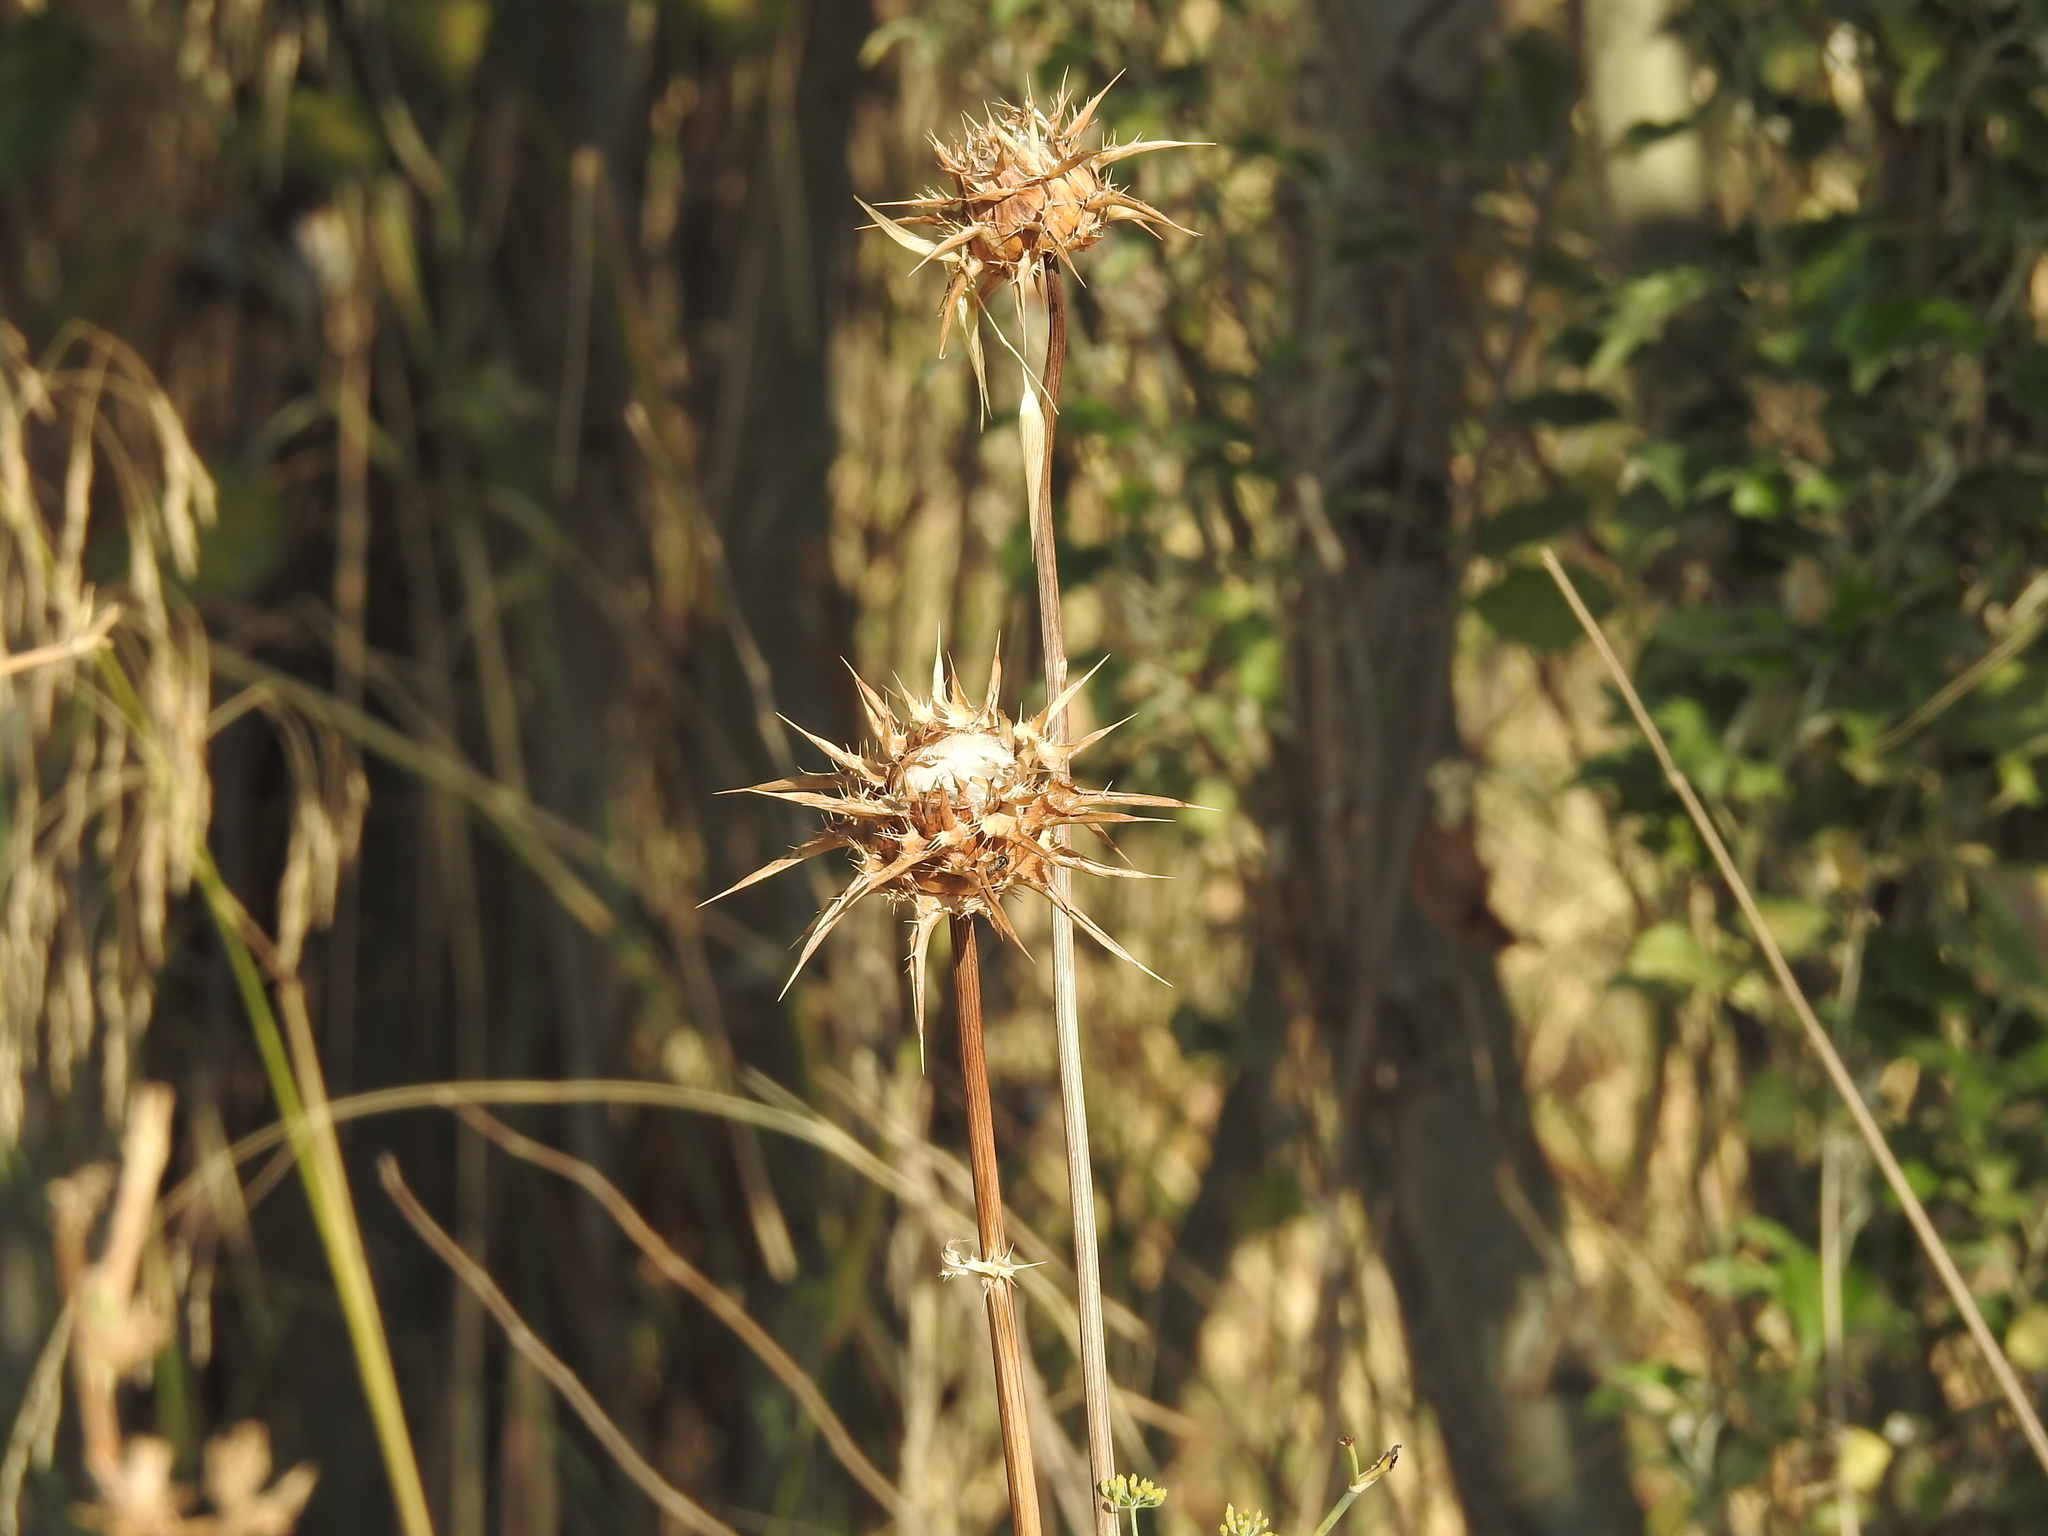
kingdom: Plantae
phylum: Tracheophyta
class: Magnoliopsida
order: Asterales
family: Asteraceae
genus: Silybum
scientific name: Silybum marianum
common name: Milk thistle
